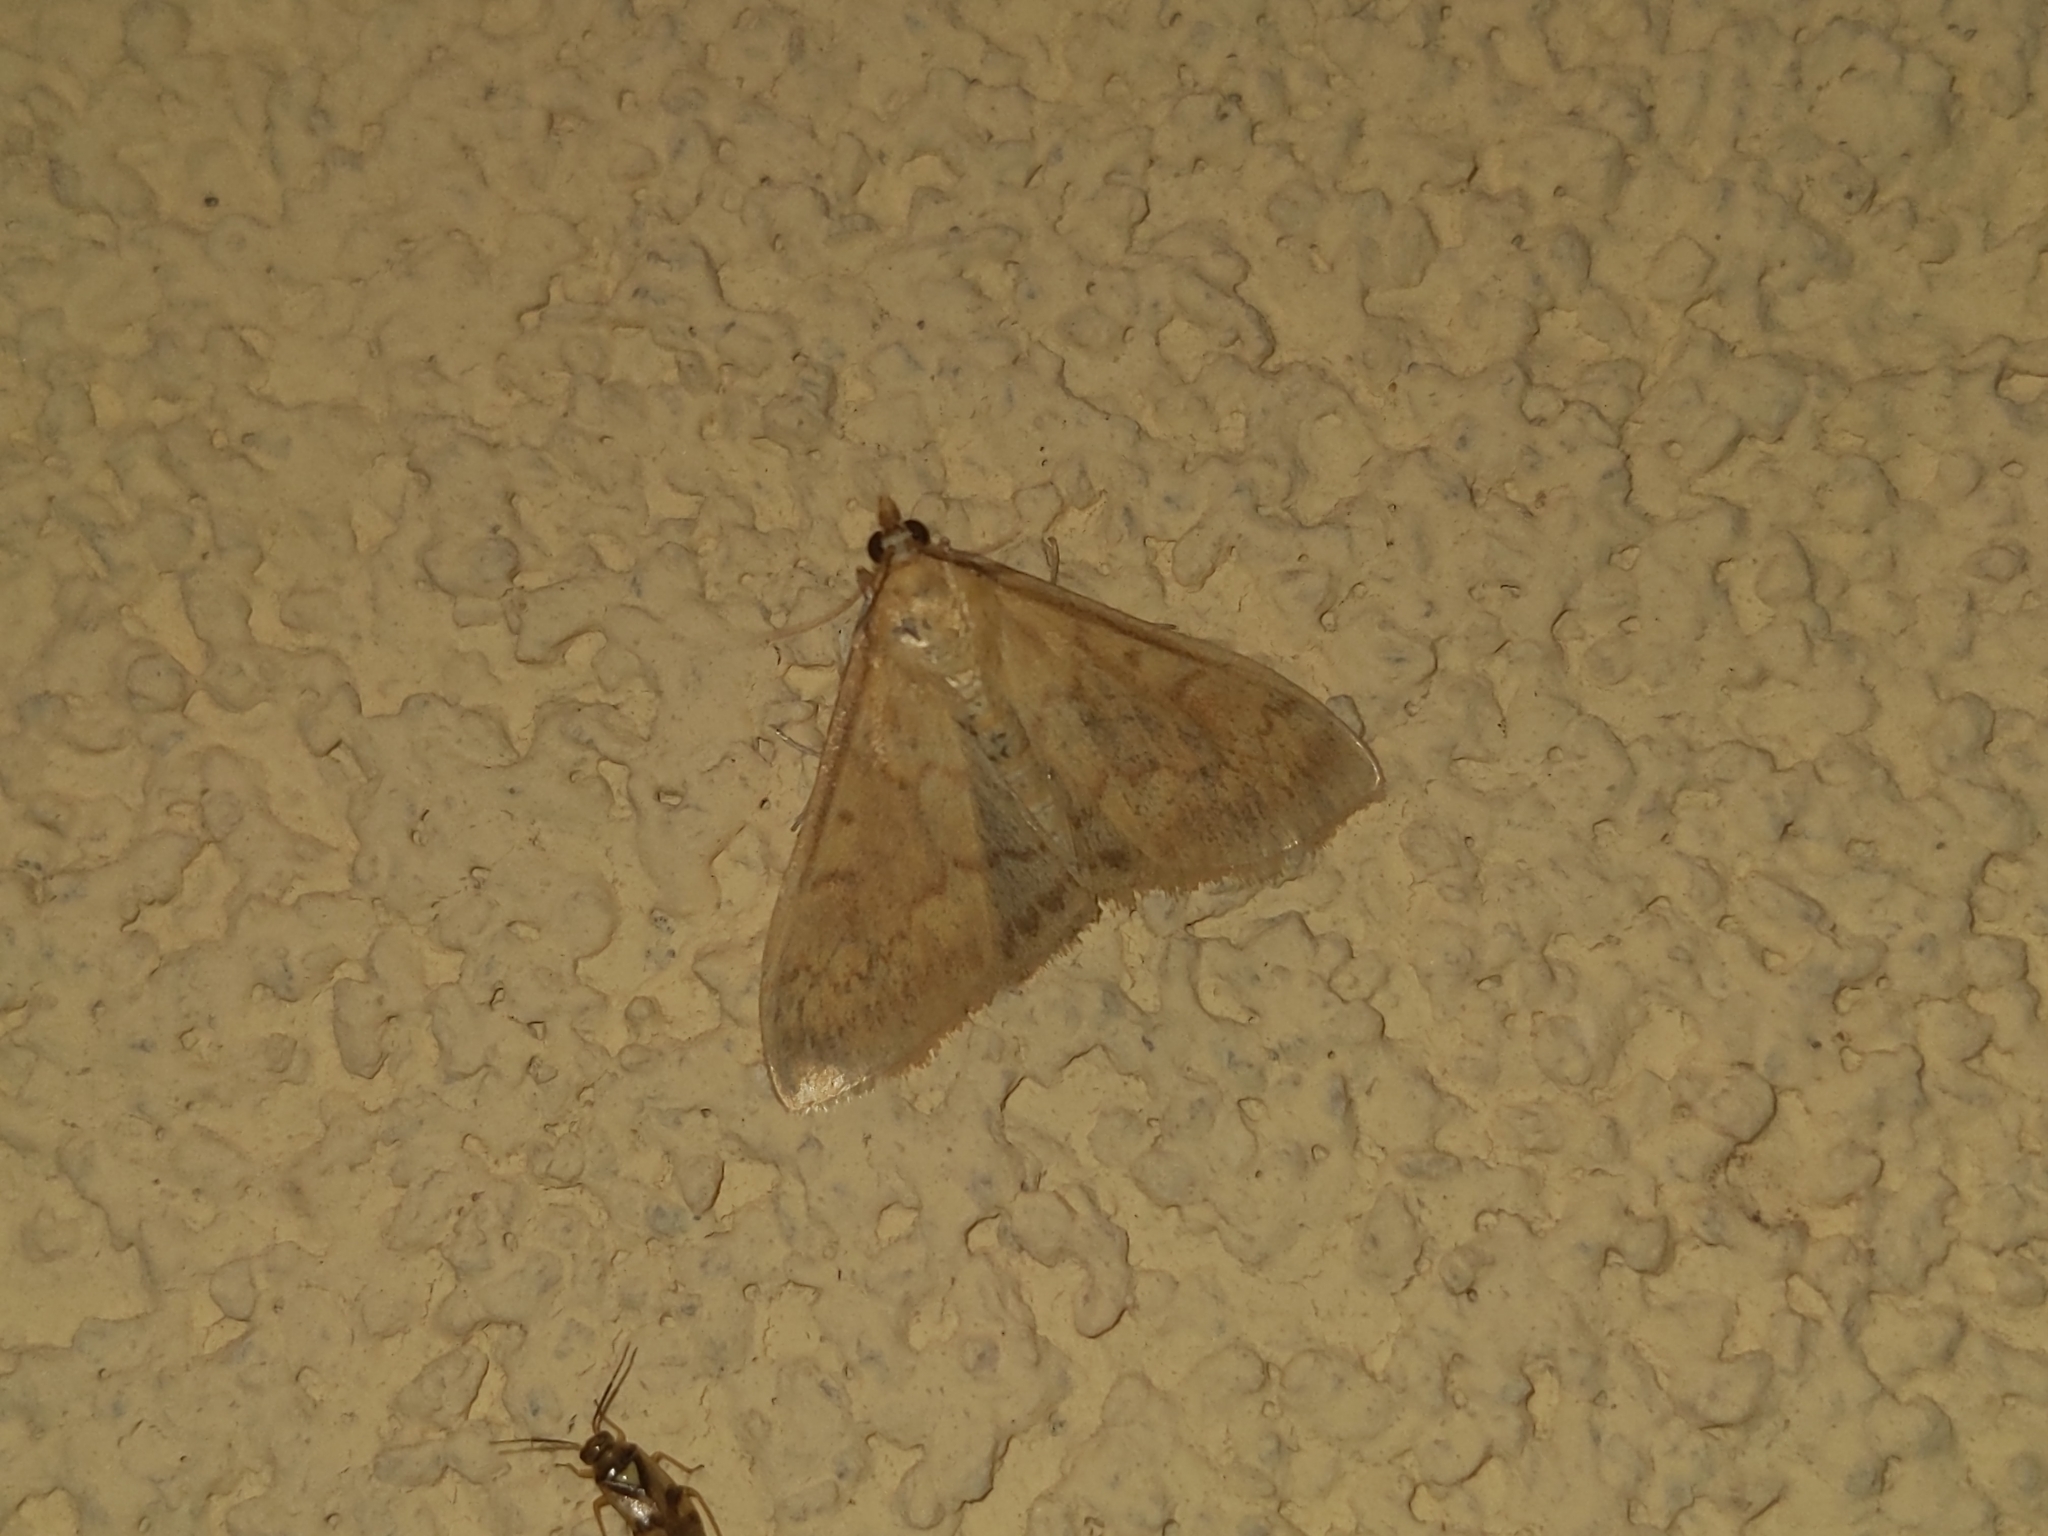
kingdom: Animalia
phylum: Arthropoda
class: Insecta
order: Lepidoptera
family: Crambidae
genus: Ostrinia
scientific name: Ostrinia nubilalis
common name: European corn borer
